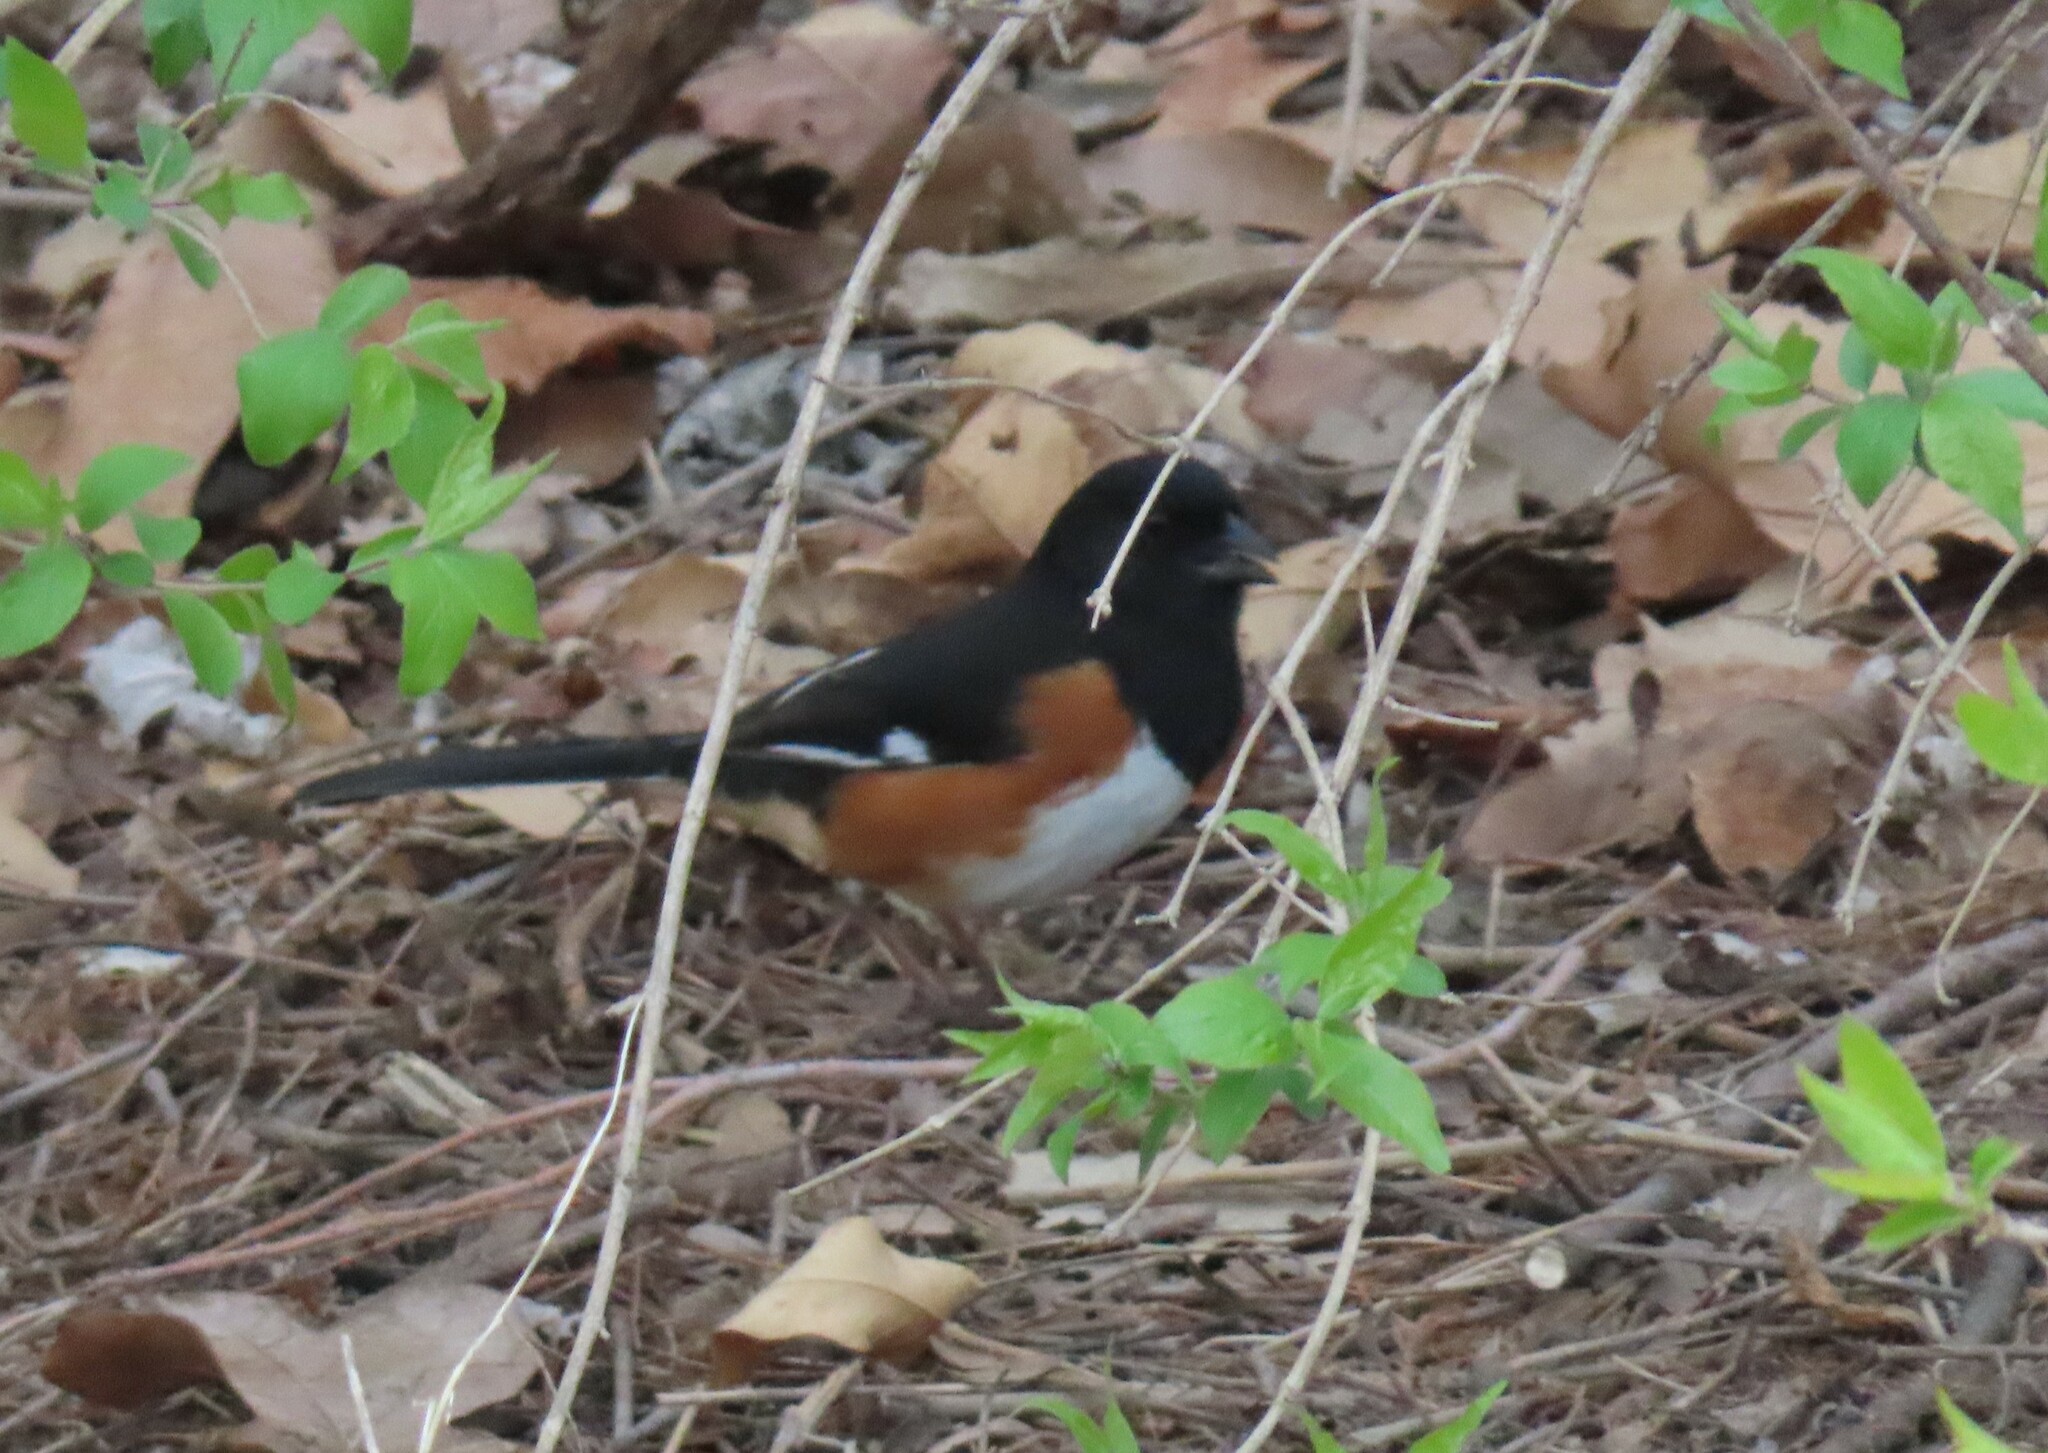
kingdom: Animalia
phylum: Chordata
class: Aves
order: Passeriformes
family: Passerellidae
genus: Pipilo
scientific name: Pipilo erythrophthalmus
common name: Eastern towhee
